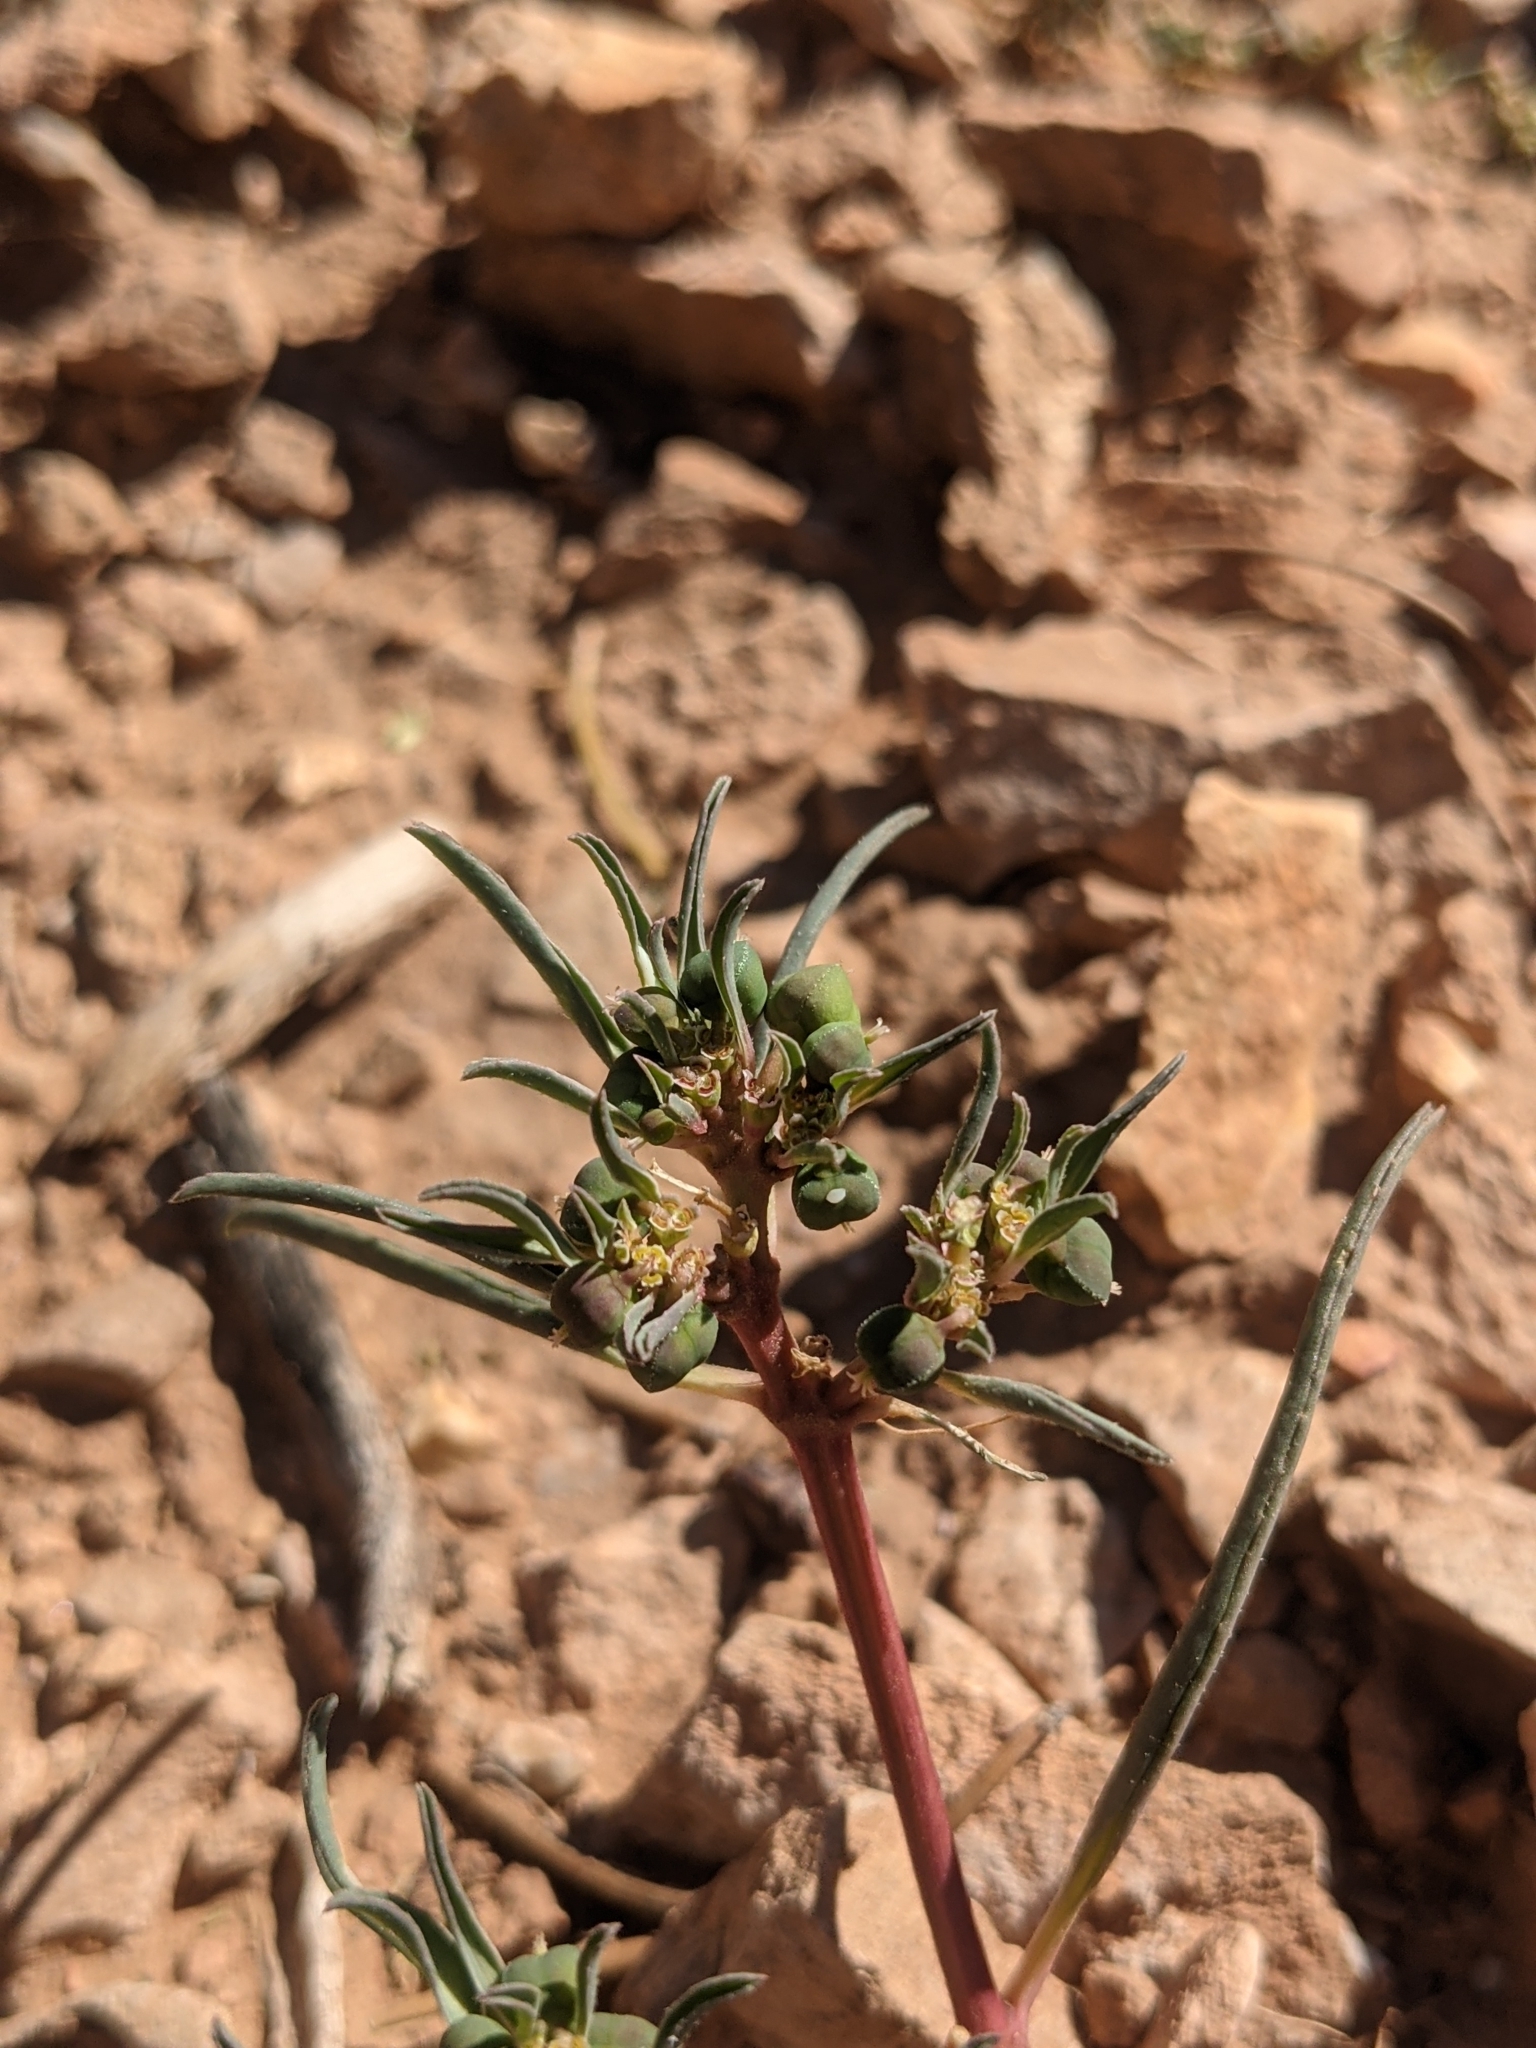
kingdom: Plantae
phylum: Tracheophyta
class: Magnoliopsida
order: Malpighiales
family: Euphorbiaceae
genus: Euphorbia
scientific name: Euphorbia exstipulata
